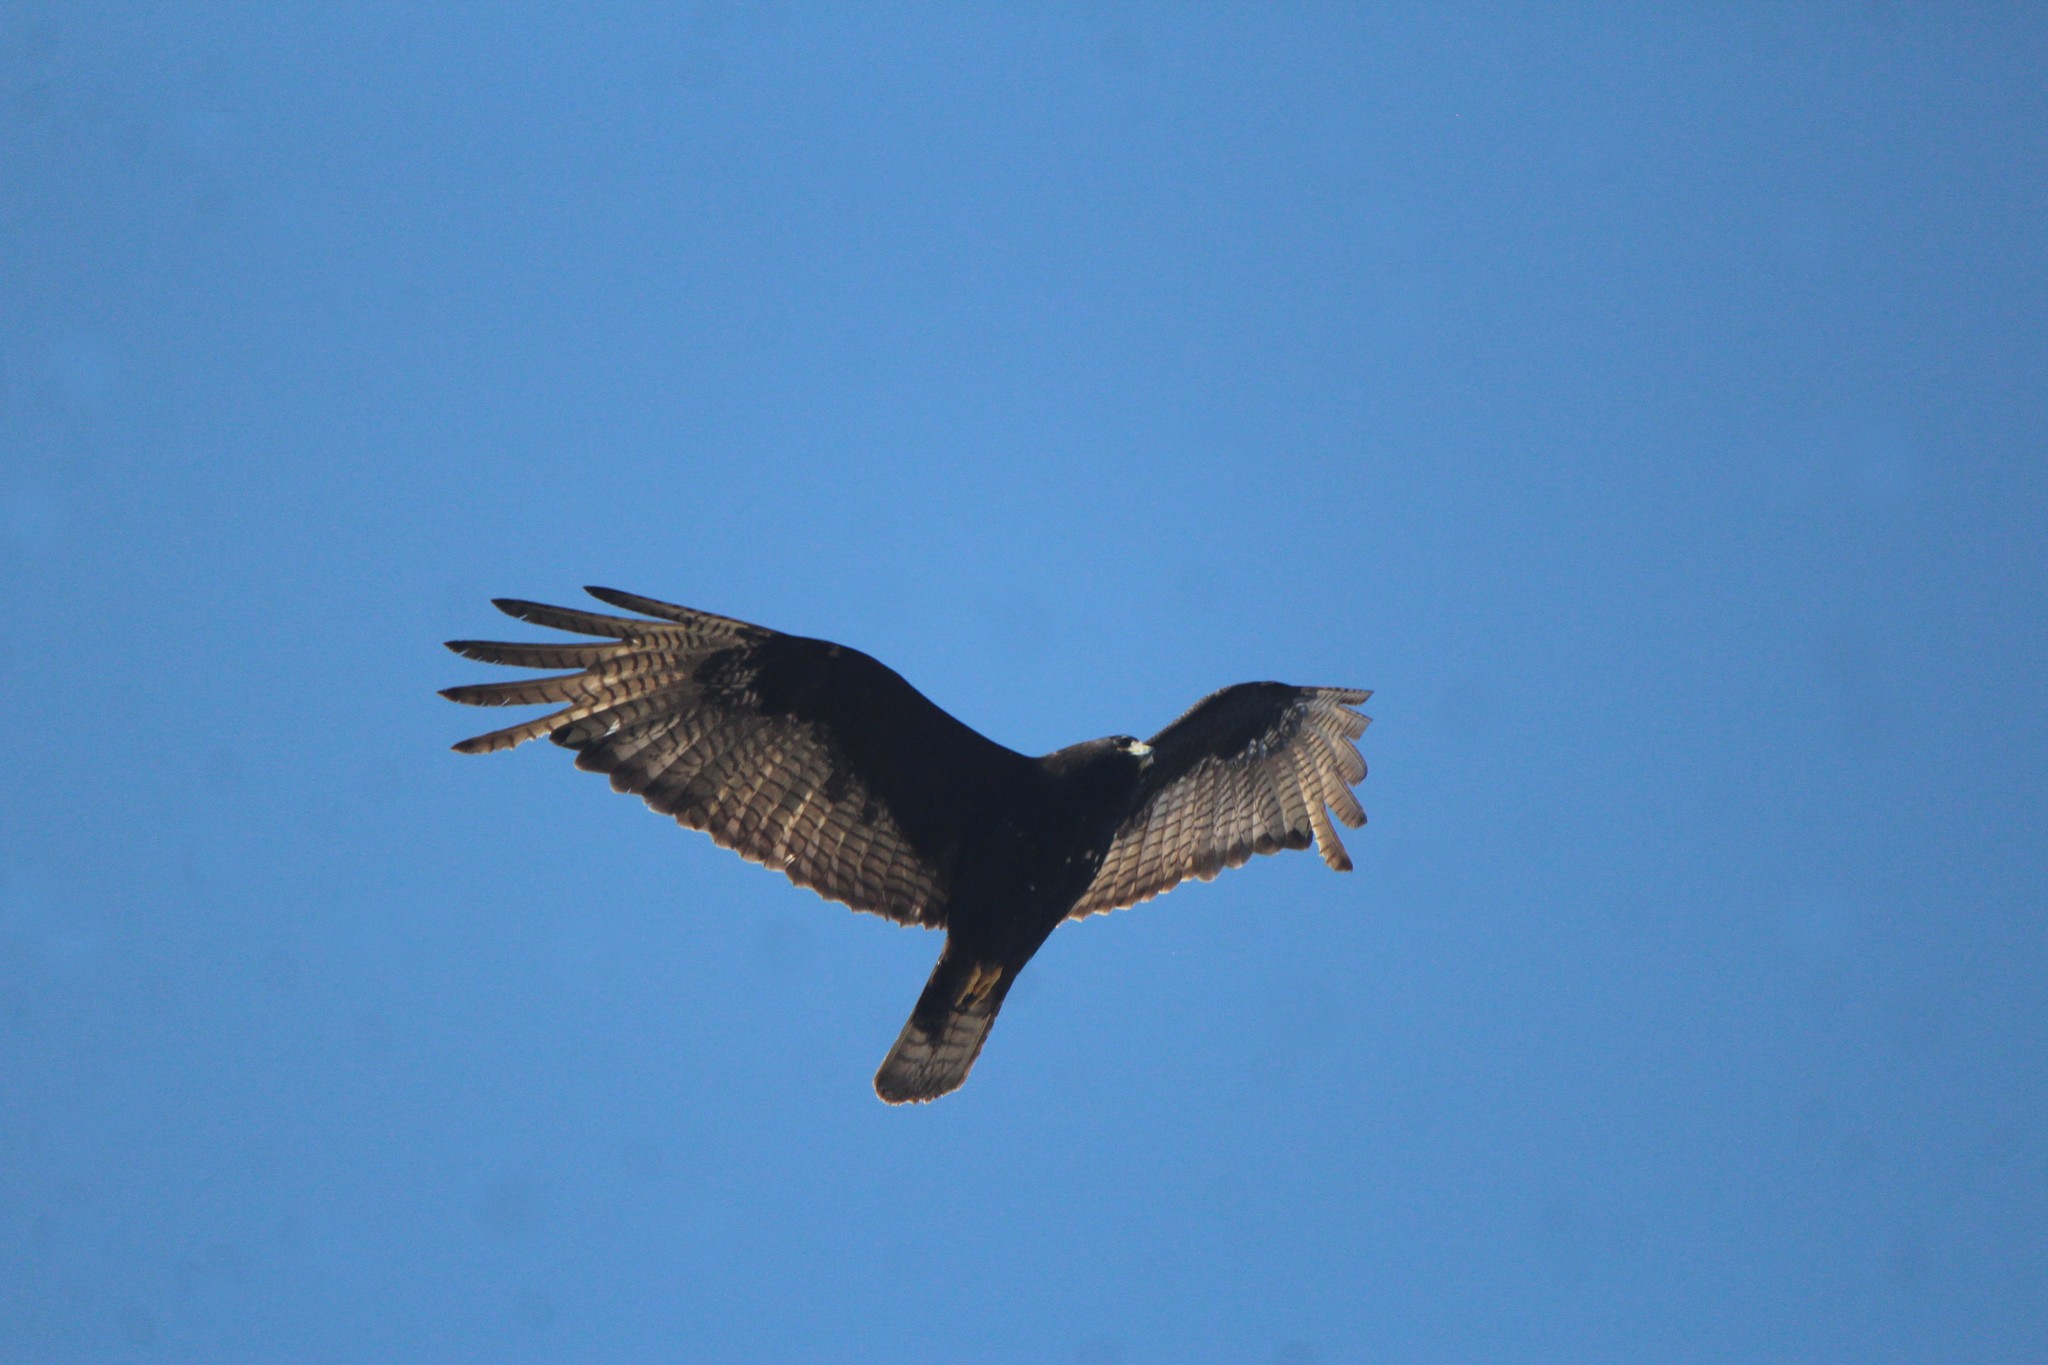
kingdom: Animalia
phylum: Chordata
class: Aves
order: Accipitriformes
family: Accipitridae
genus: Buteo
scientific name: Buteo albonotatus
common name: Zone-tailed hawk
